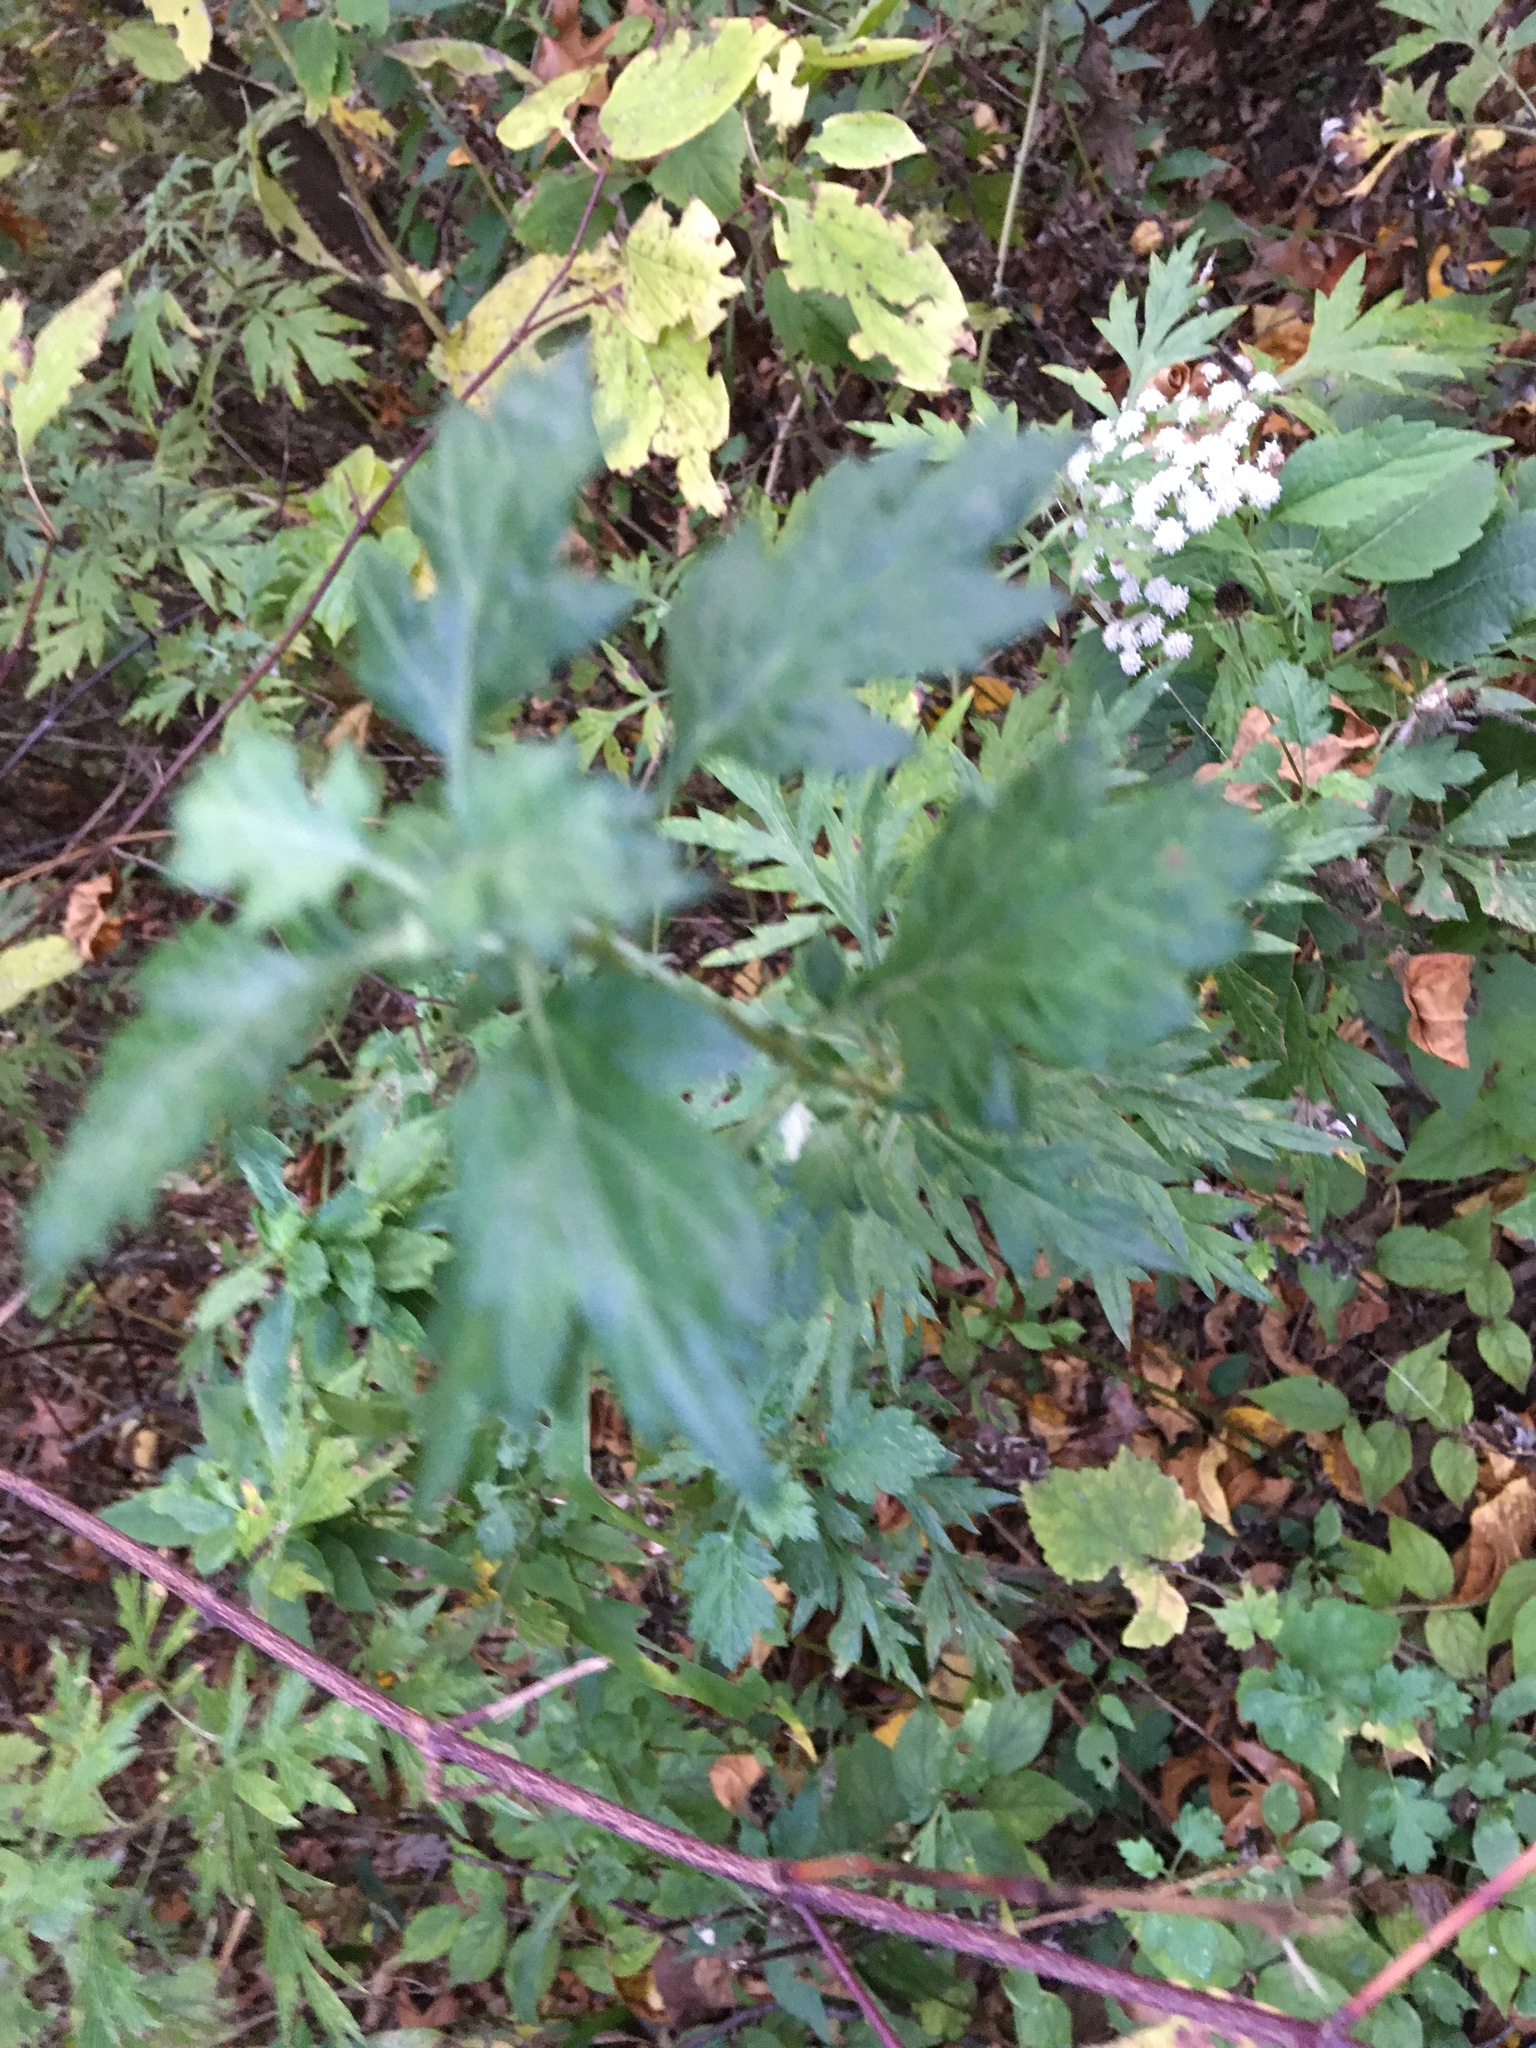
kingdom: Plantae
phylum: Tracheophyta
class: Magnoliopsida
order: Asterales
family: Asteraceae
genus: Artemisia
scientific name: Artemisia vulgaris
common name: Mugwort
